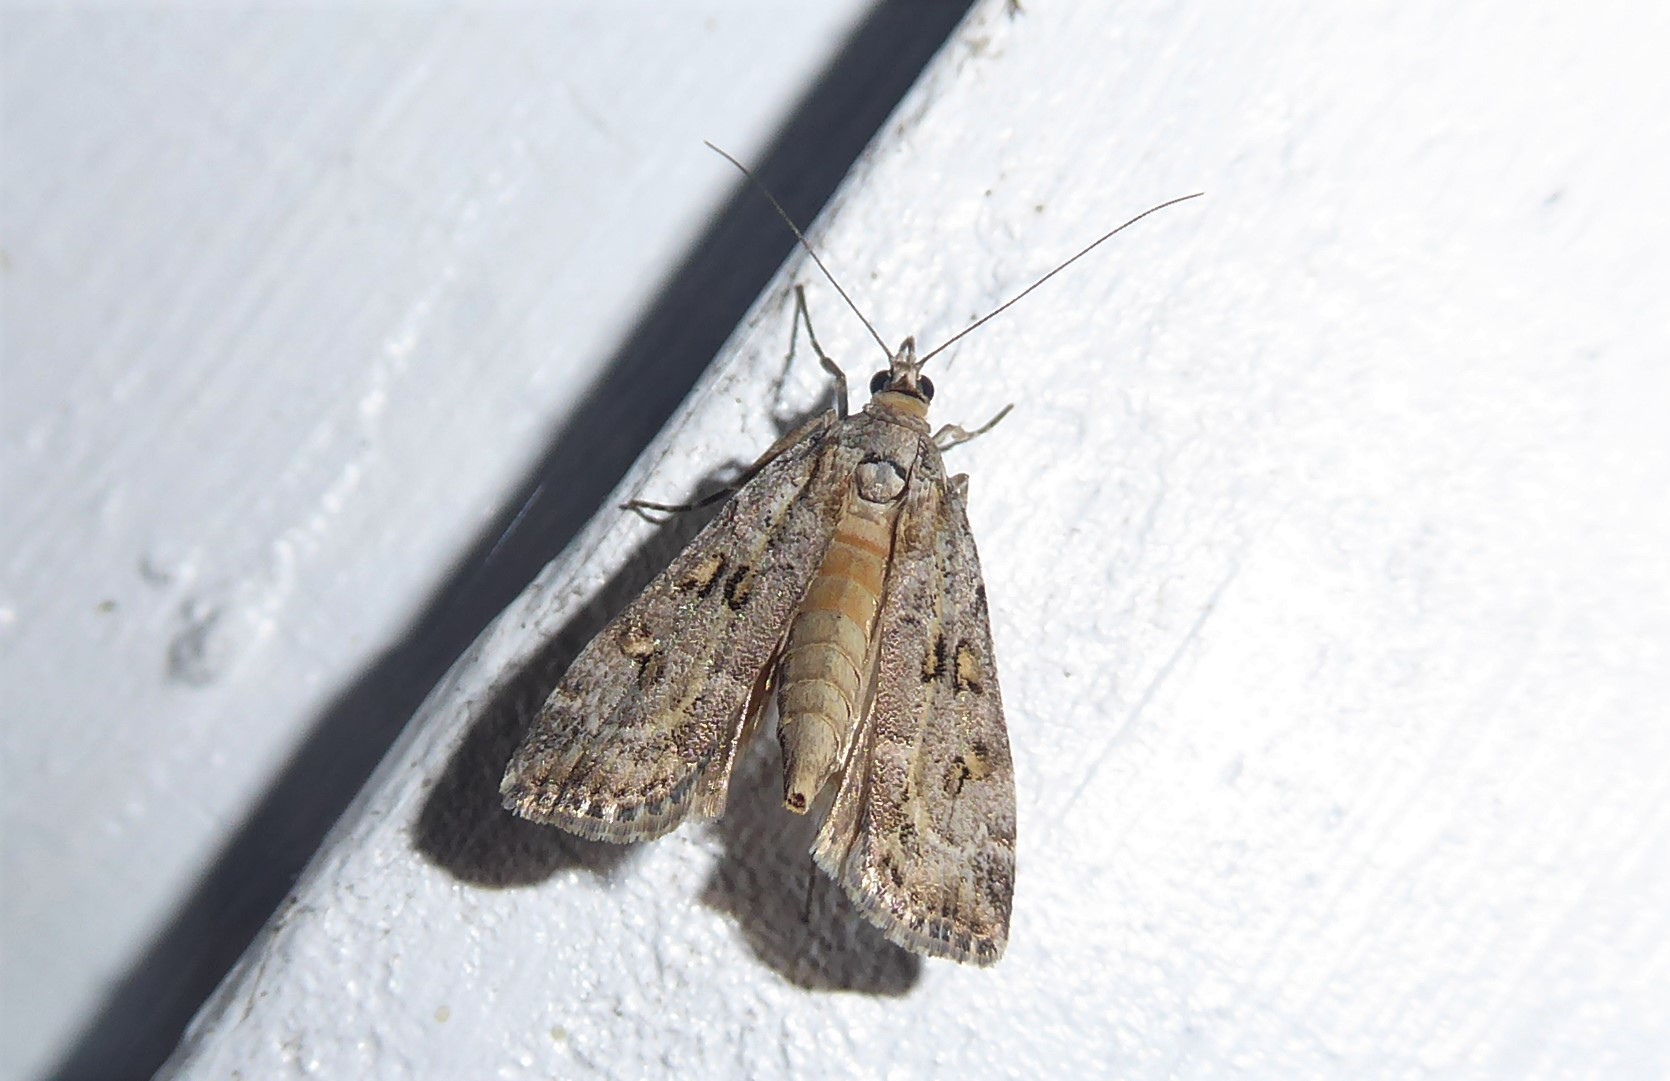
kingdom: Animalia
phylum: Arthropoda
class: Insecta
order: Lepidoptera
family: Crambidae
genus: Eudonia
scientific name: Eudonia diphtheralis
